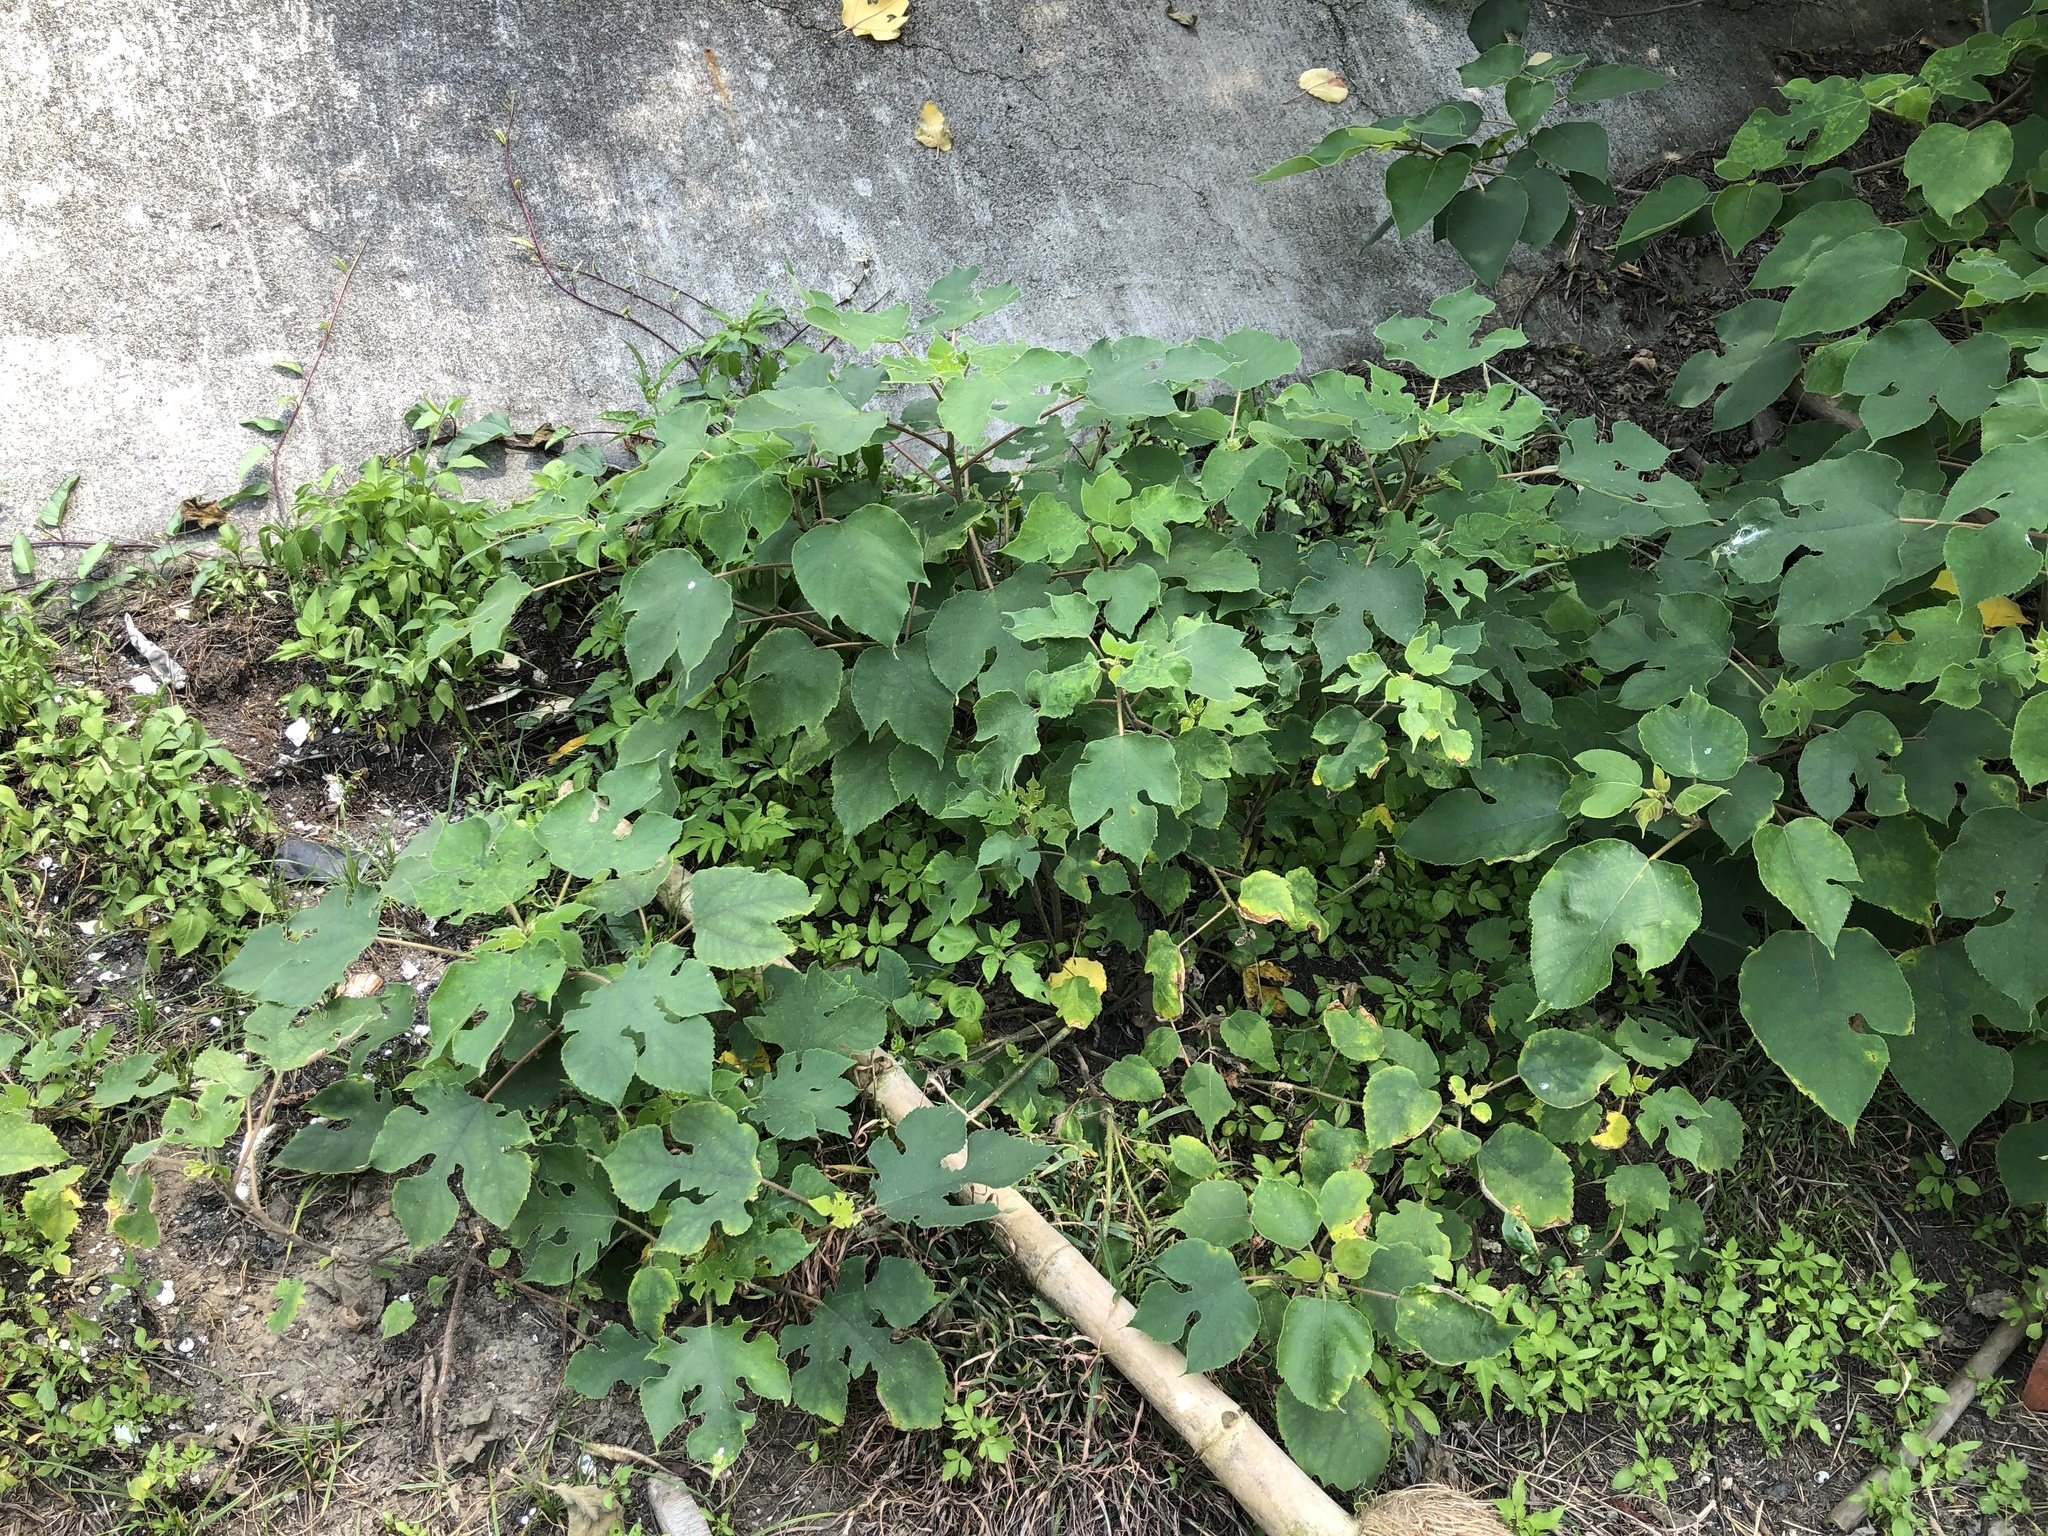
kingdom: Plantae
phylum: Tracheophyta
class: Magnoliopsida
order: Rosales
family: Moraceae
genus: Broussonetia
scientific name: Broussonetia papyrifera
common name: Paper mulberry
